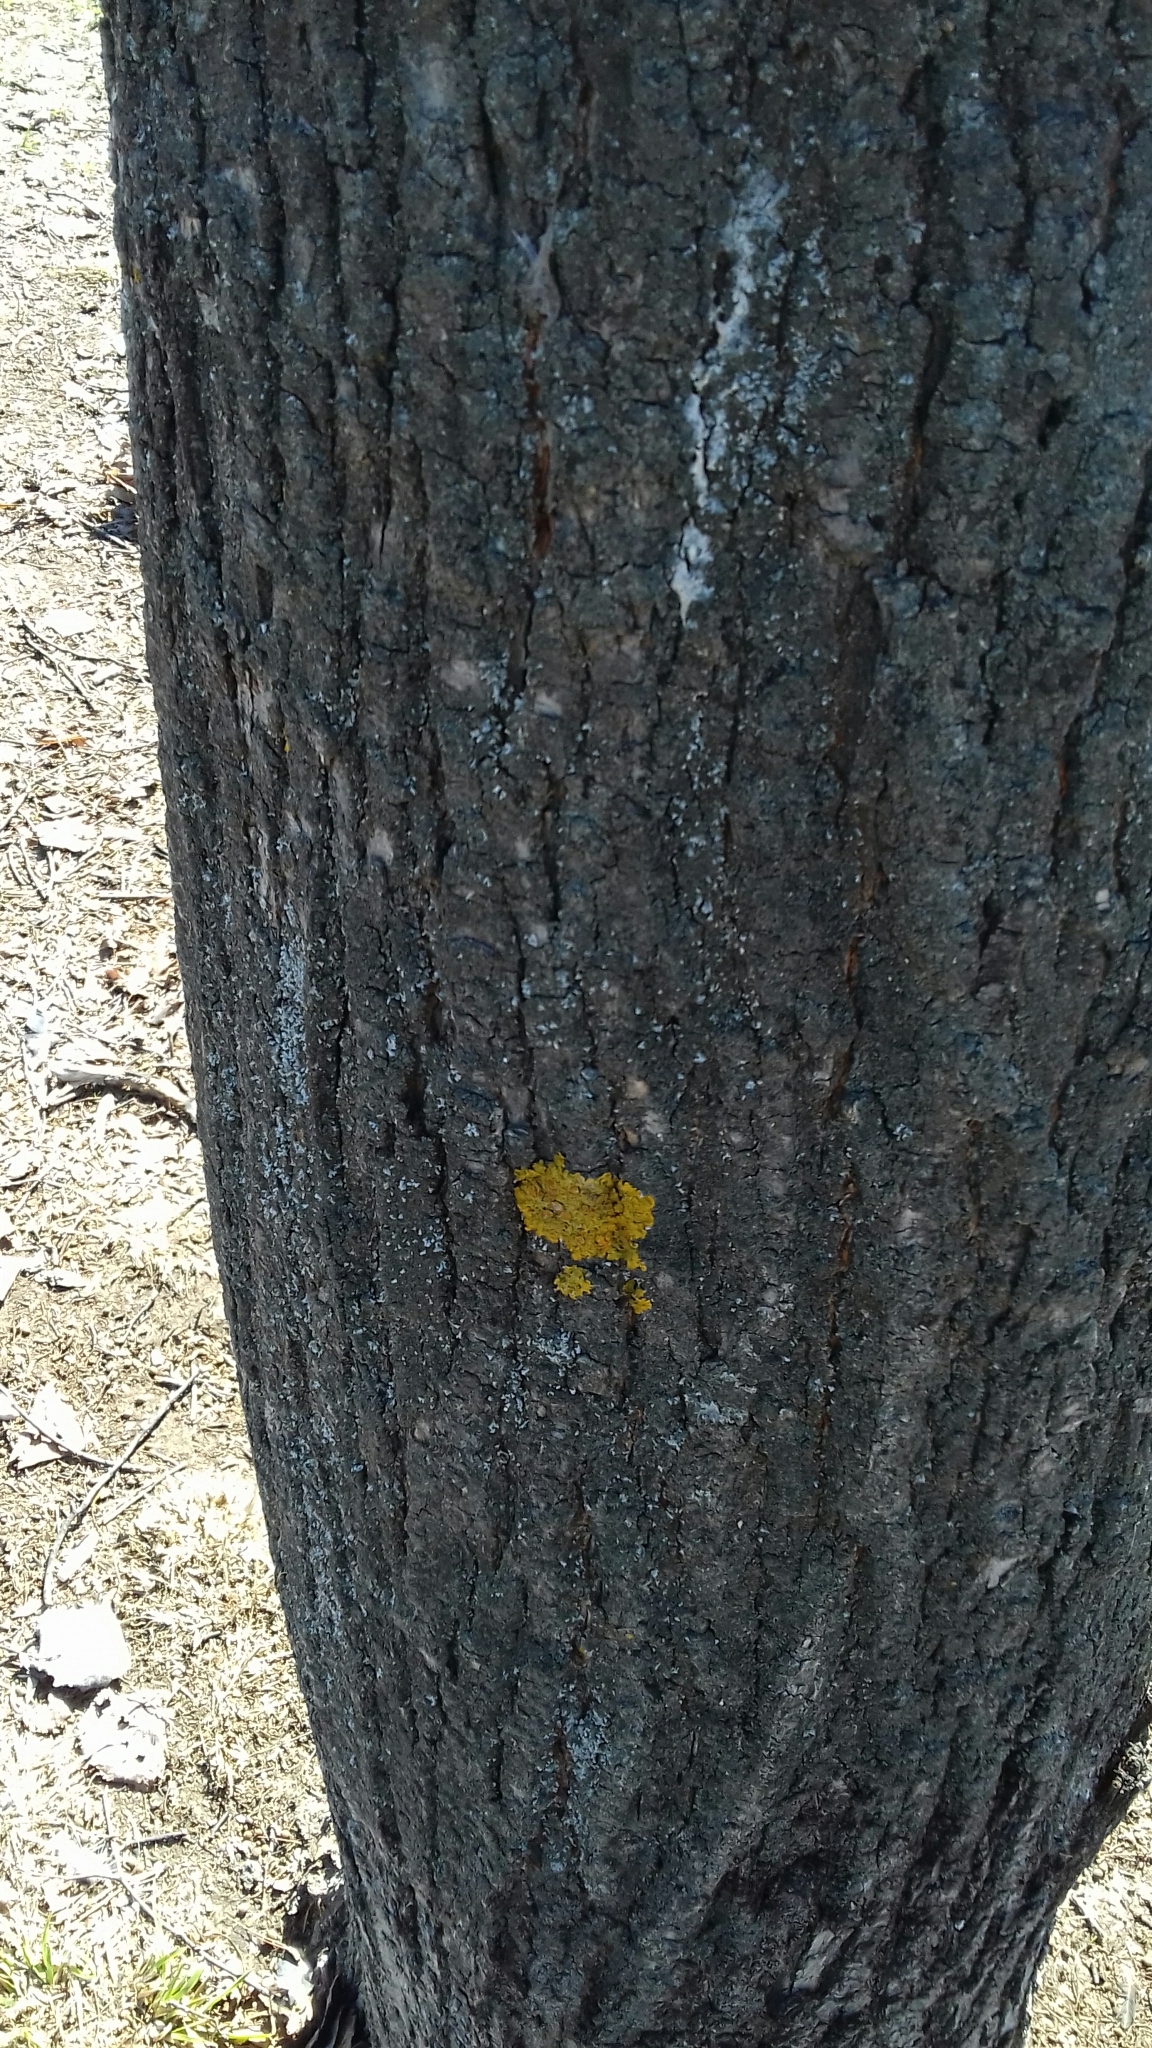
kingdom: Fungi
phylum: Ascomycota
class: Lecanoromycetes
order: Teloschistales
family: Teloschistaceae
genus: Xanthoria
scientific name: Xanthoria parietina
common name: Common orange lichen
